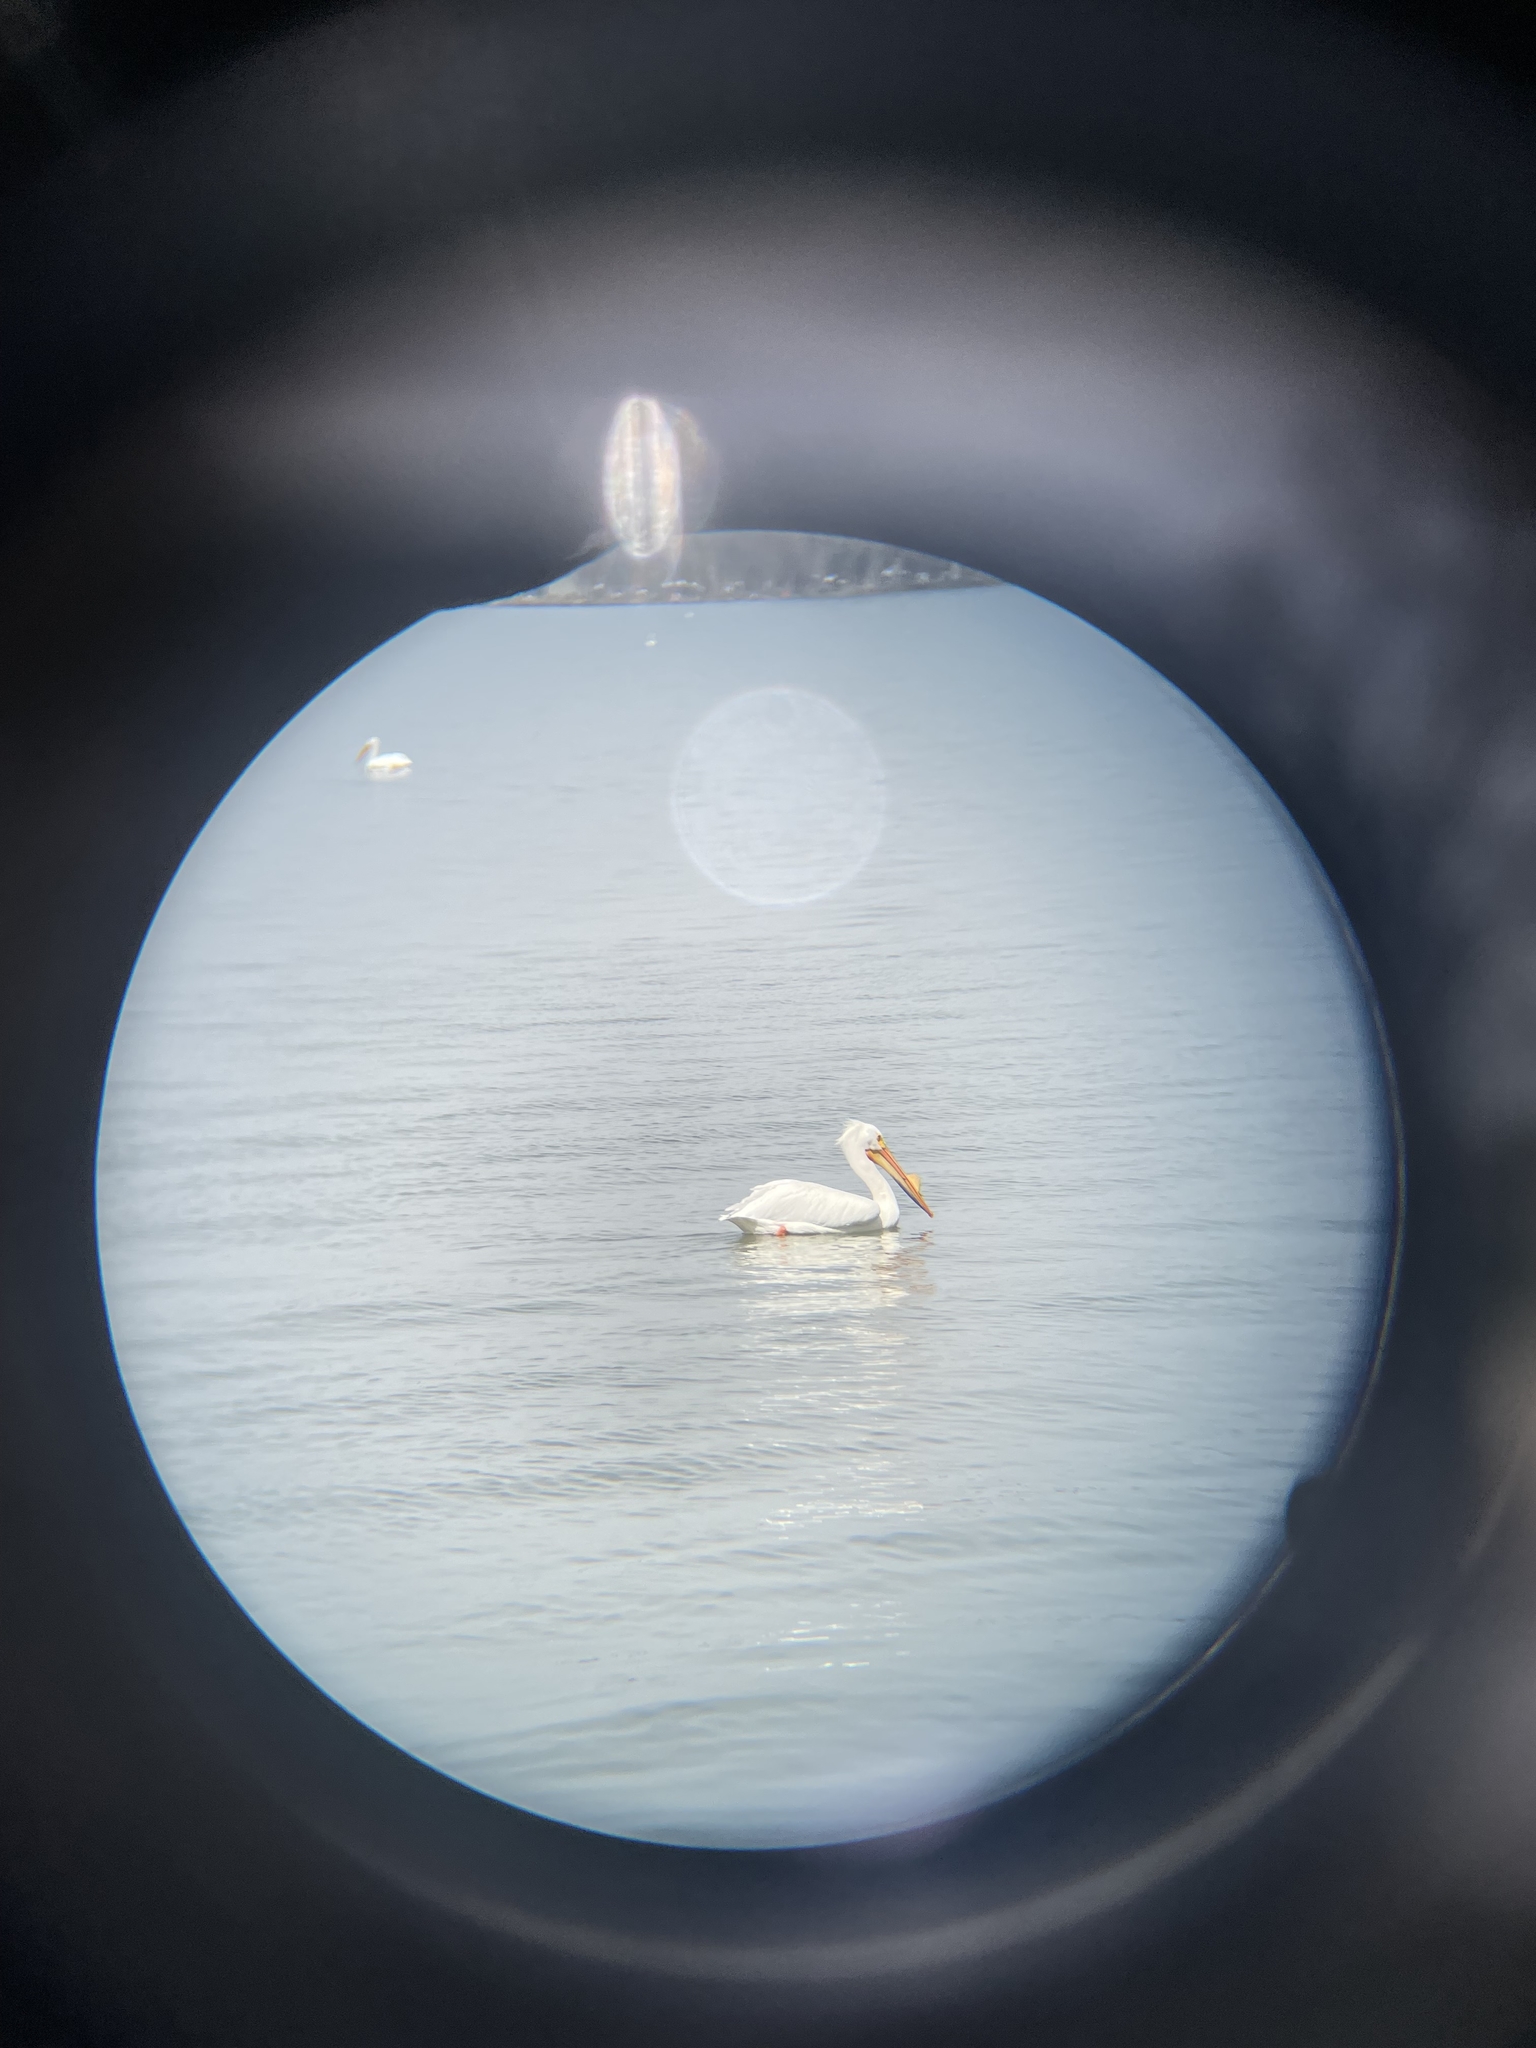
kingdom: Animalia
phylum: Chordata
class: Aves
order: Pelecaniformes
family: Pelecanidae
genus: Pelecanus
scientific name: Pelecanus erythrorhynchos
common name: American white pelican
